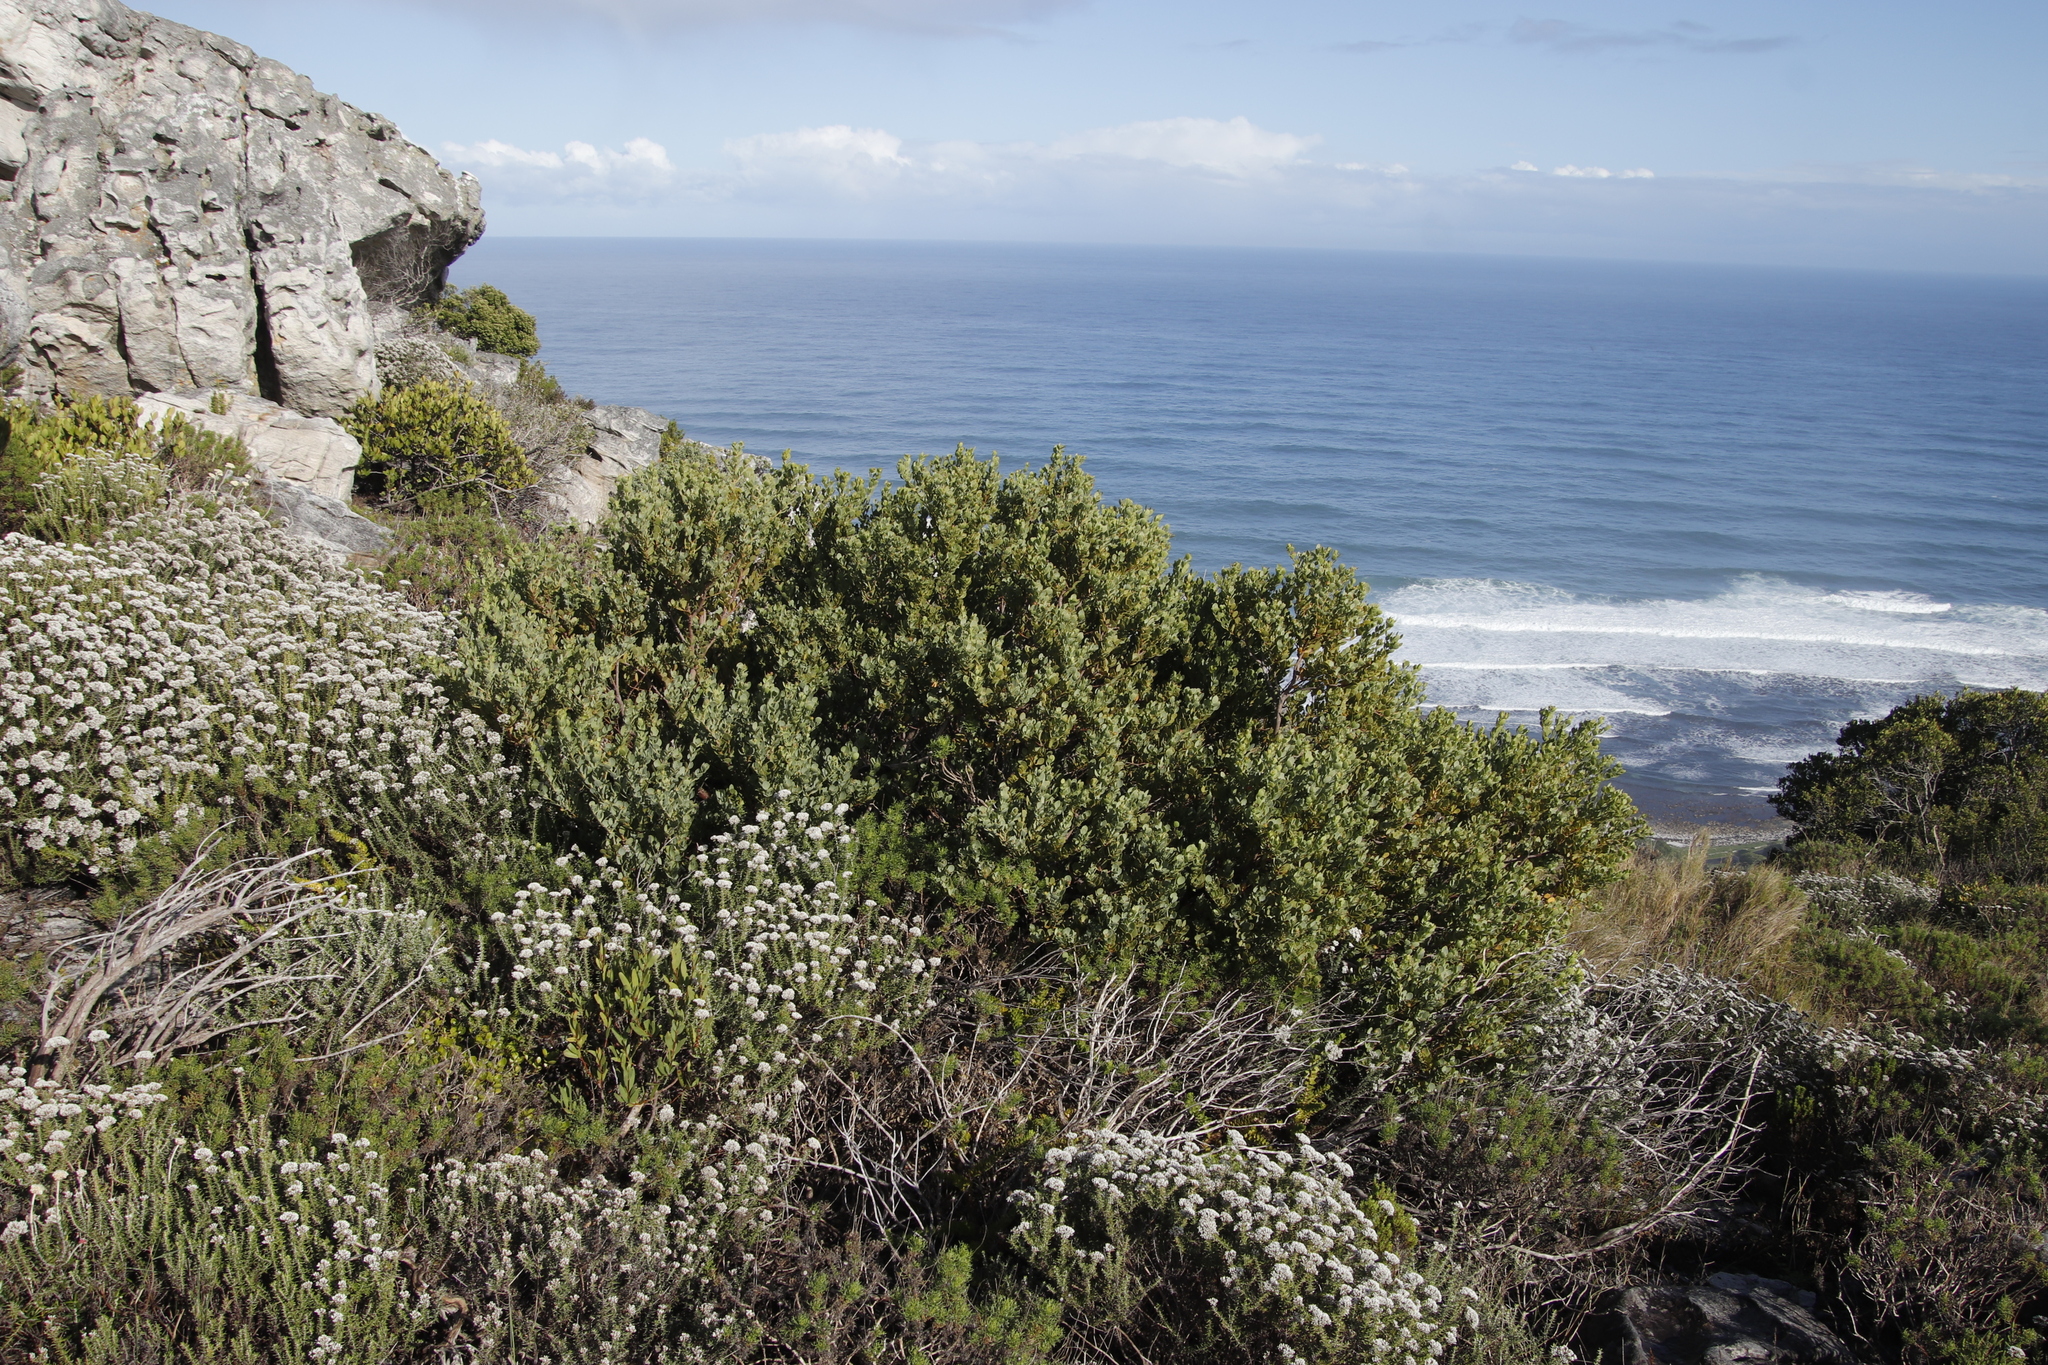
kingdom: Plantae
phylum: Tracheophyta
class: Magnoliopsida
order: Santalales
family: Santalaceae
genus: Osyris
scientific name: Osyris compressa
